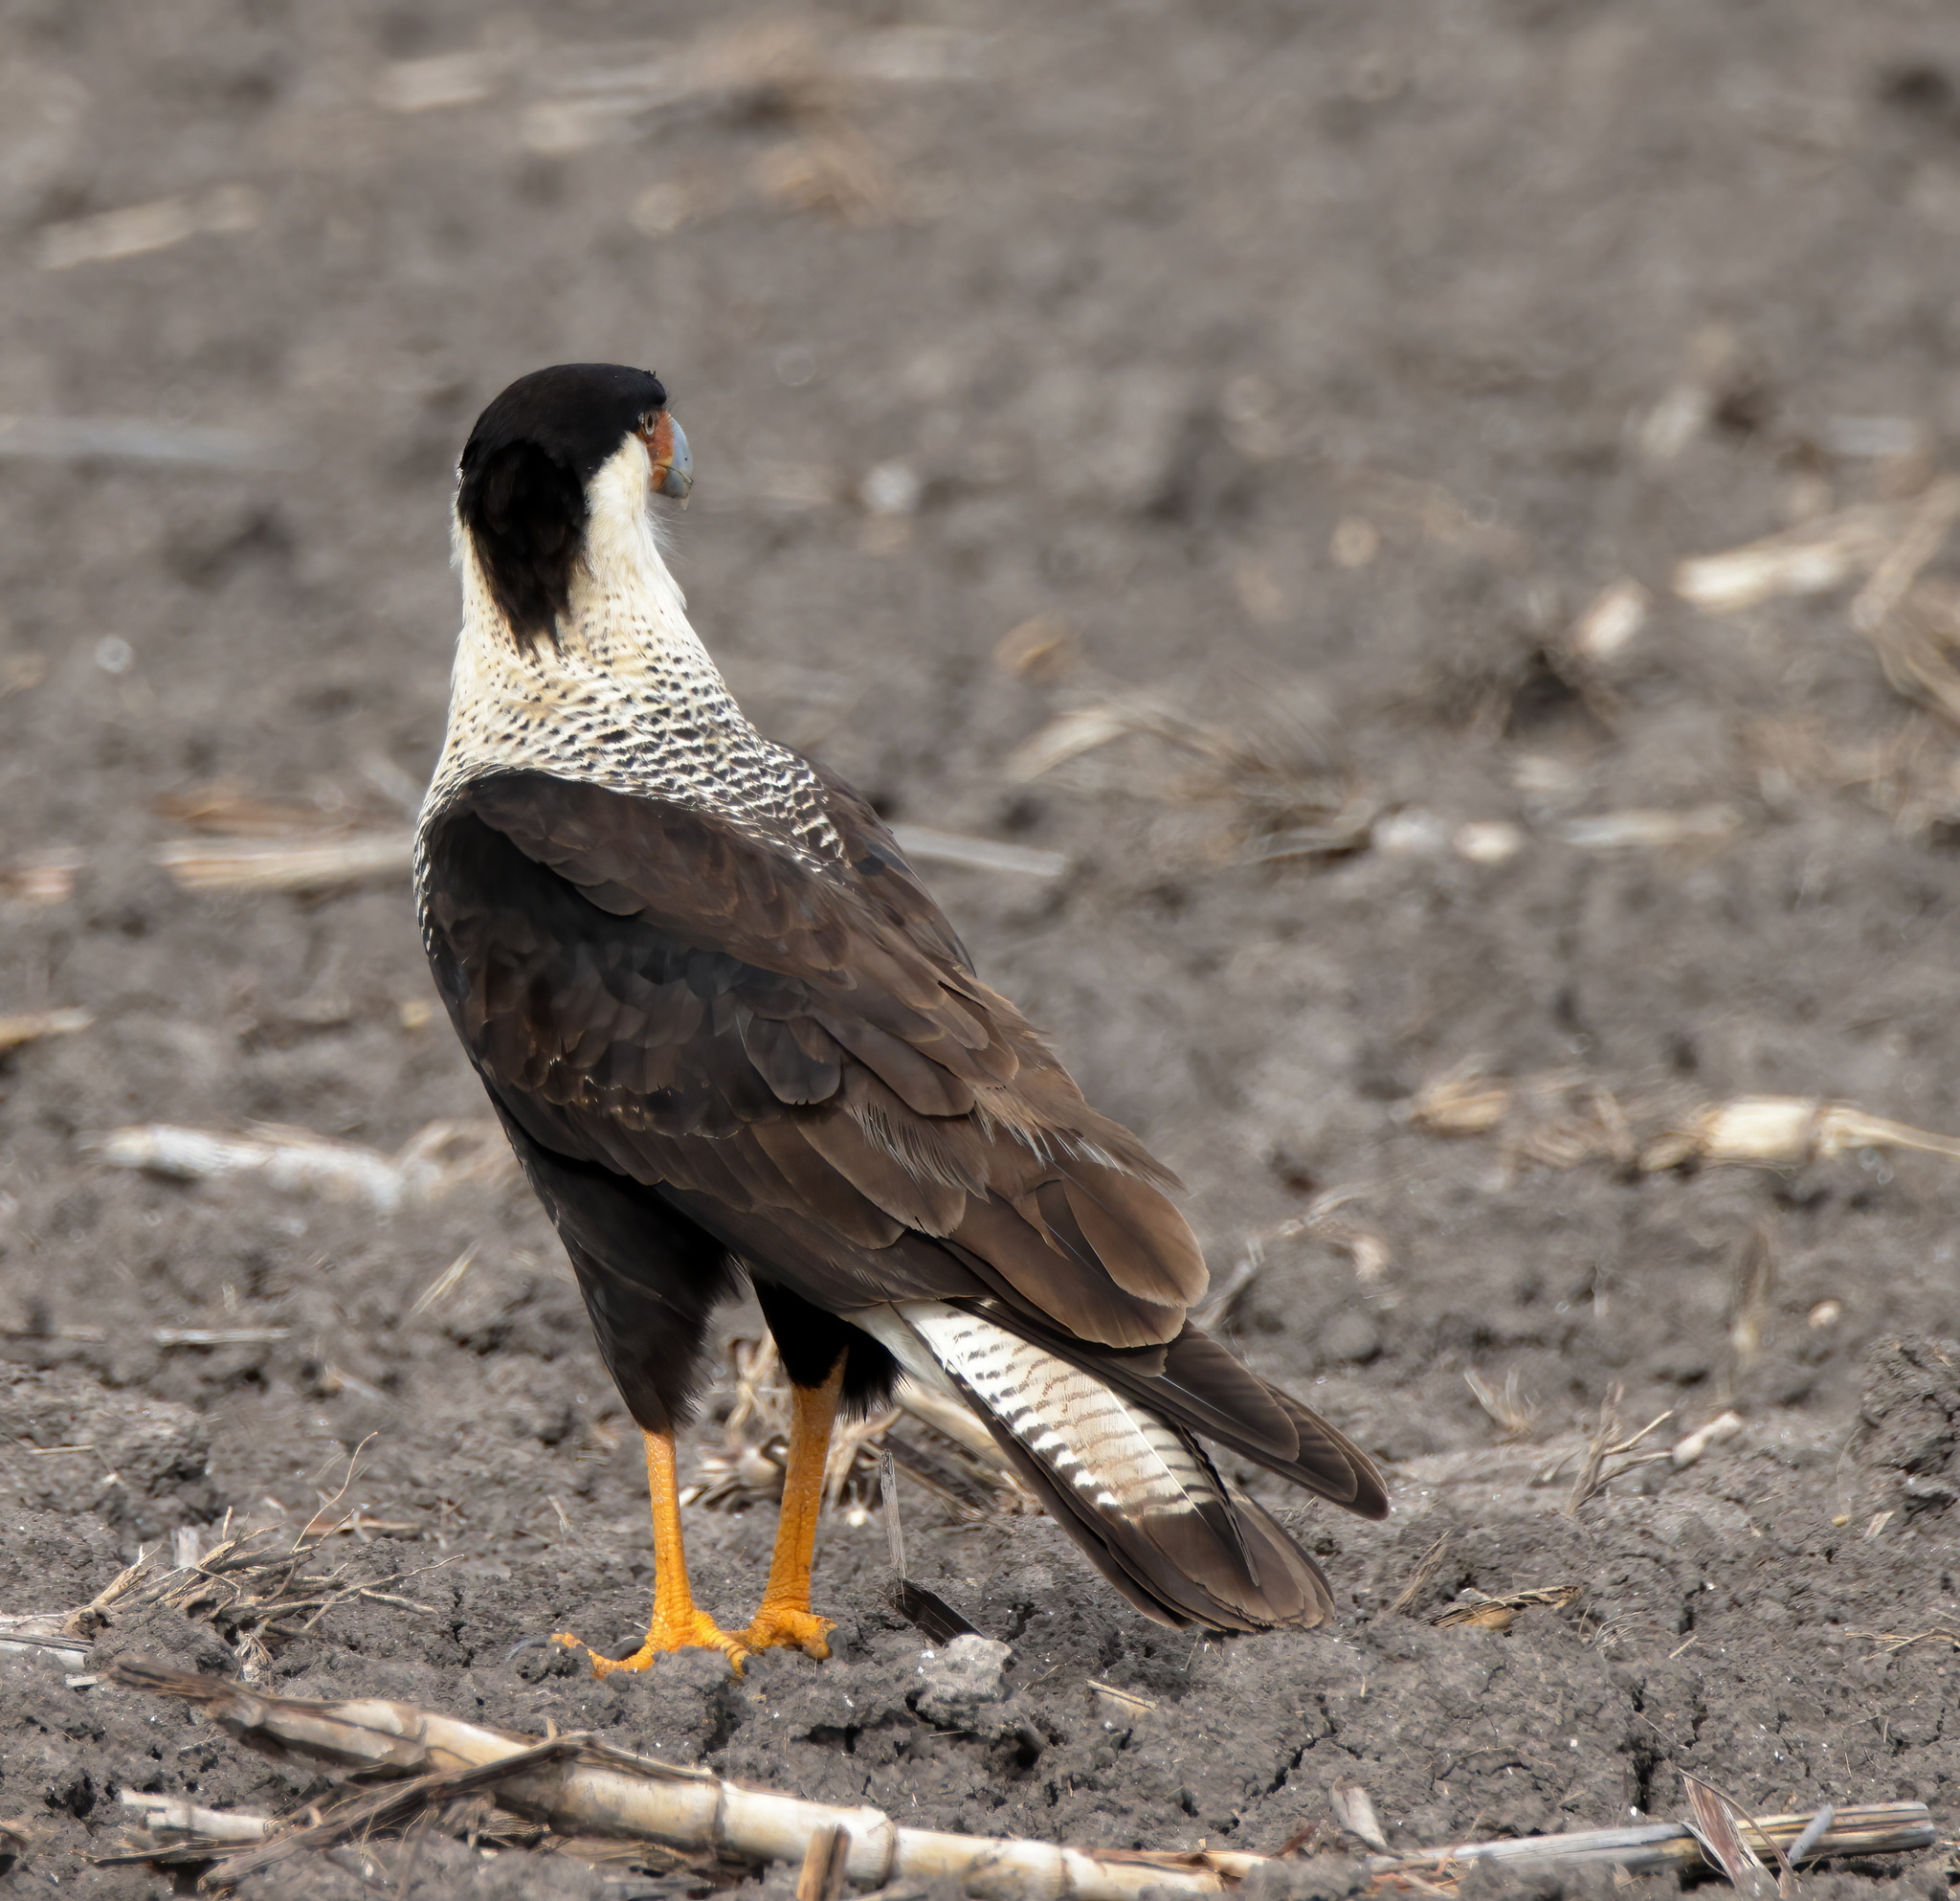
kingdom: Animalia
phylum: Chordata
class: Aves
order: Falconiformes
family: Falconidae
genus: Caracara
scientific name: Caracara plancus
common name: Southern caracara
